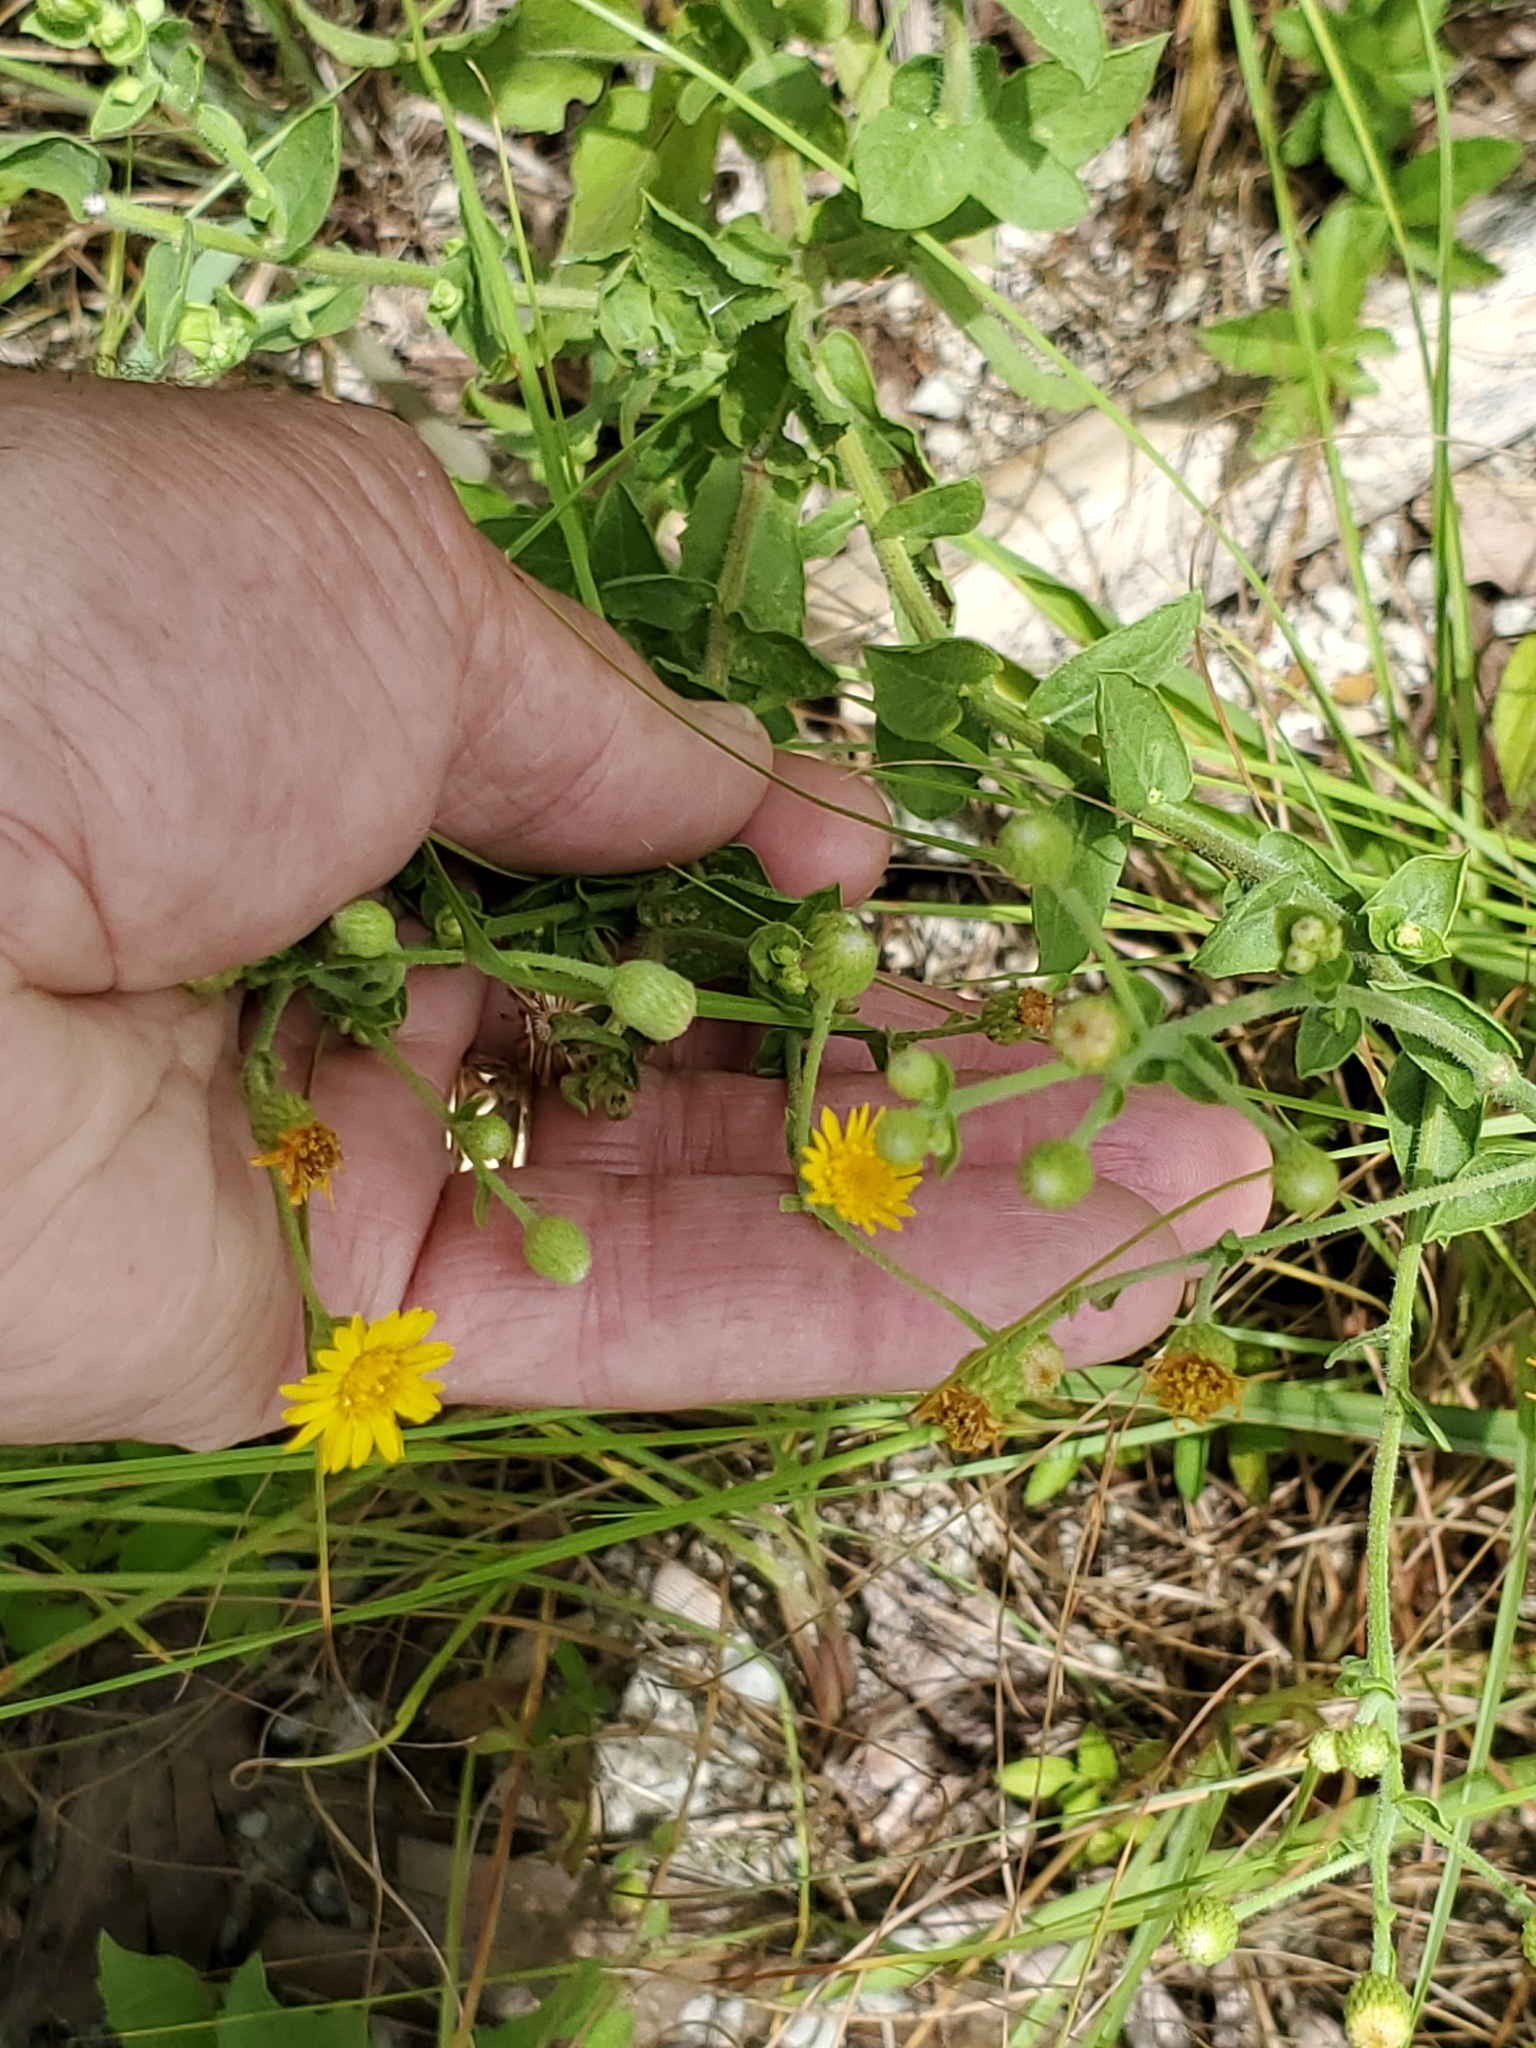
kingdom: Plantae
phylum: Tracheophyta
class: Magnoliopsida
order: Asterales
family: Asteraceae
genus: Heterotheca
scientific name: Heterotheca subaxillaris
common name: Camphorweed
